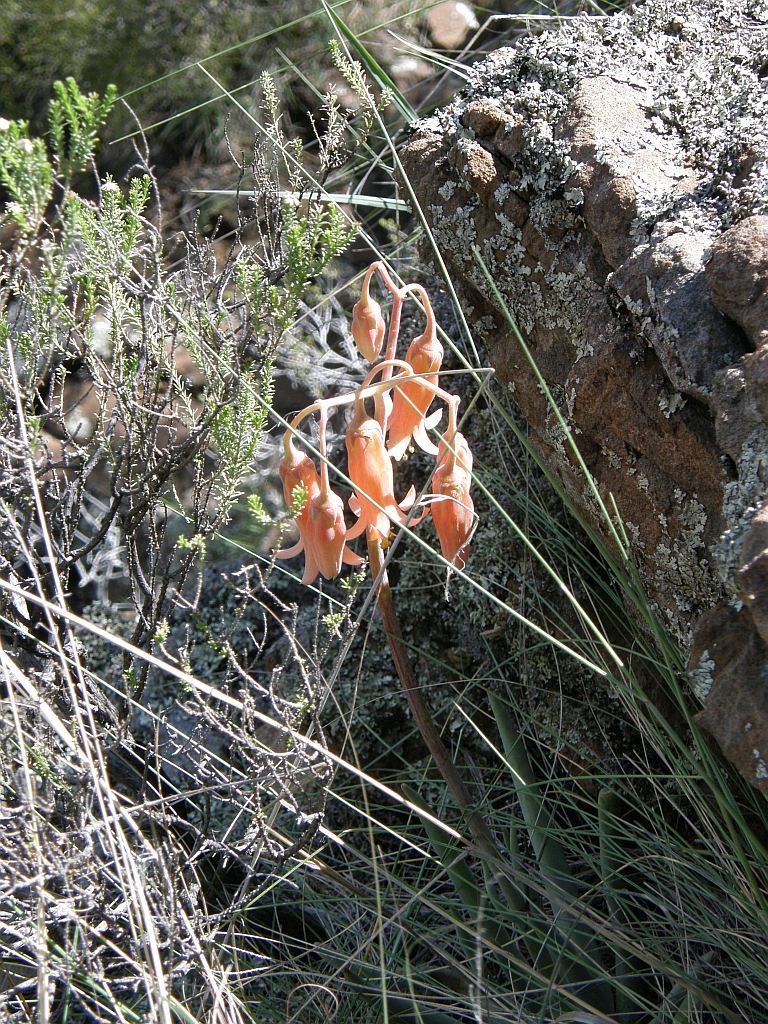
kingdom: Plantae
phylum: Tracheophyta
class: Magnoliopsida
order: Saxifragales
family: Crassulaceae
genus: Cotyledon
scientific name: Cotyledon orbiculata
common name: Pig's ear
